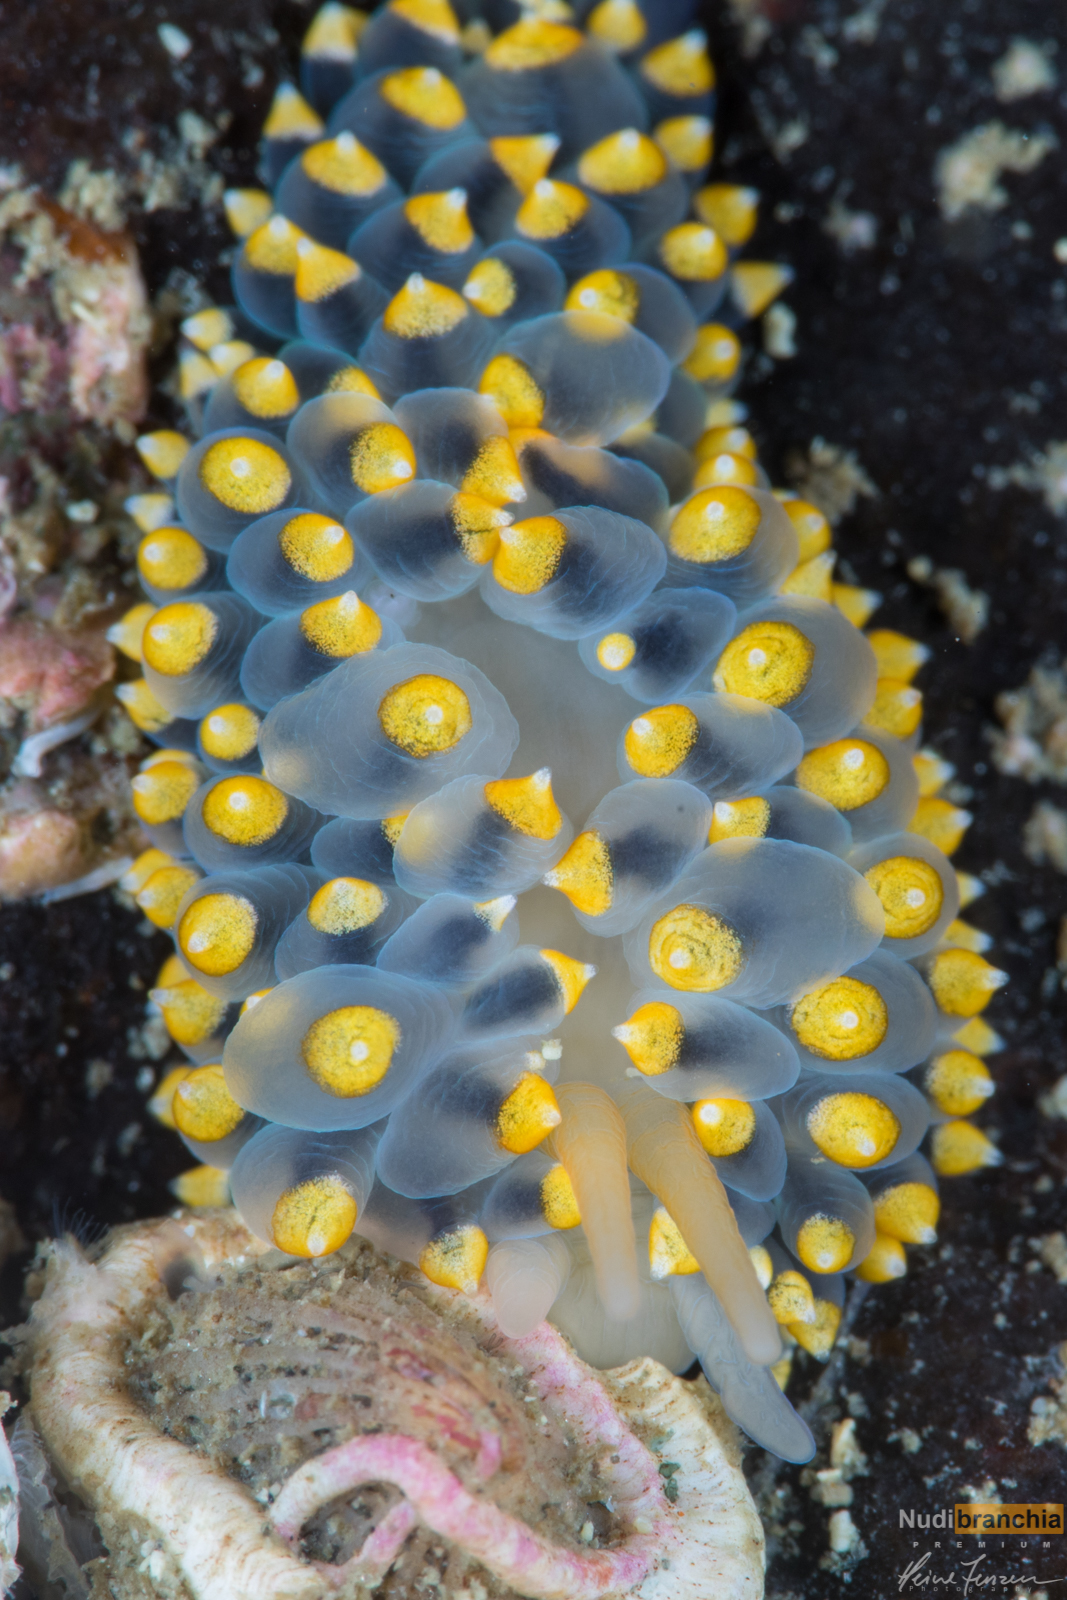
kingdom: Animalia
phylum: Mollusca
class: Gastropoda
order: Nudibranchia
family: Eubranchidae
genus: Eubranchus
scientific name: Eubranchus tricolor
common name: Painted balloon aeolis
